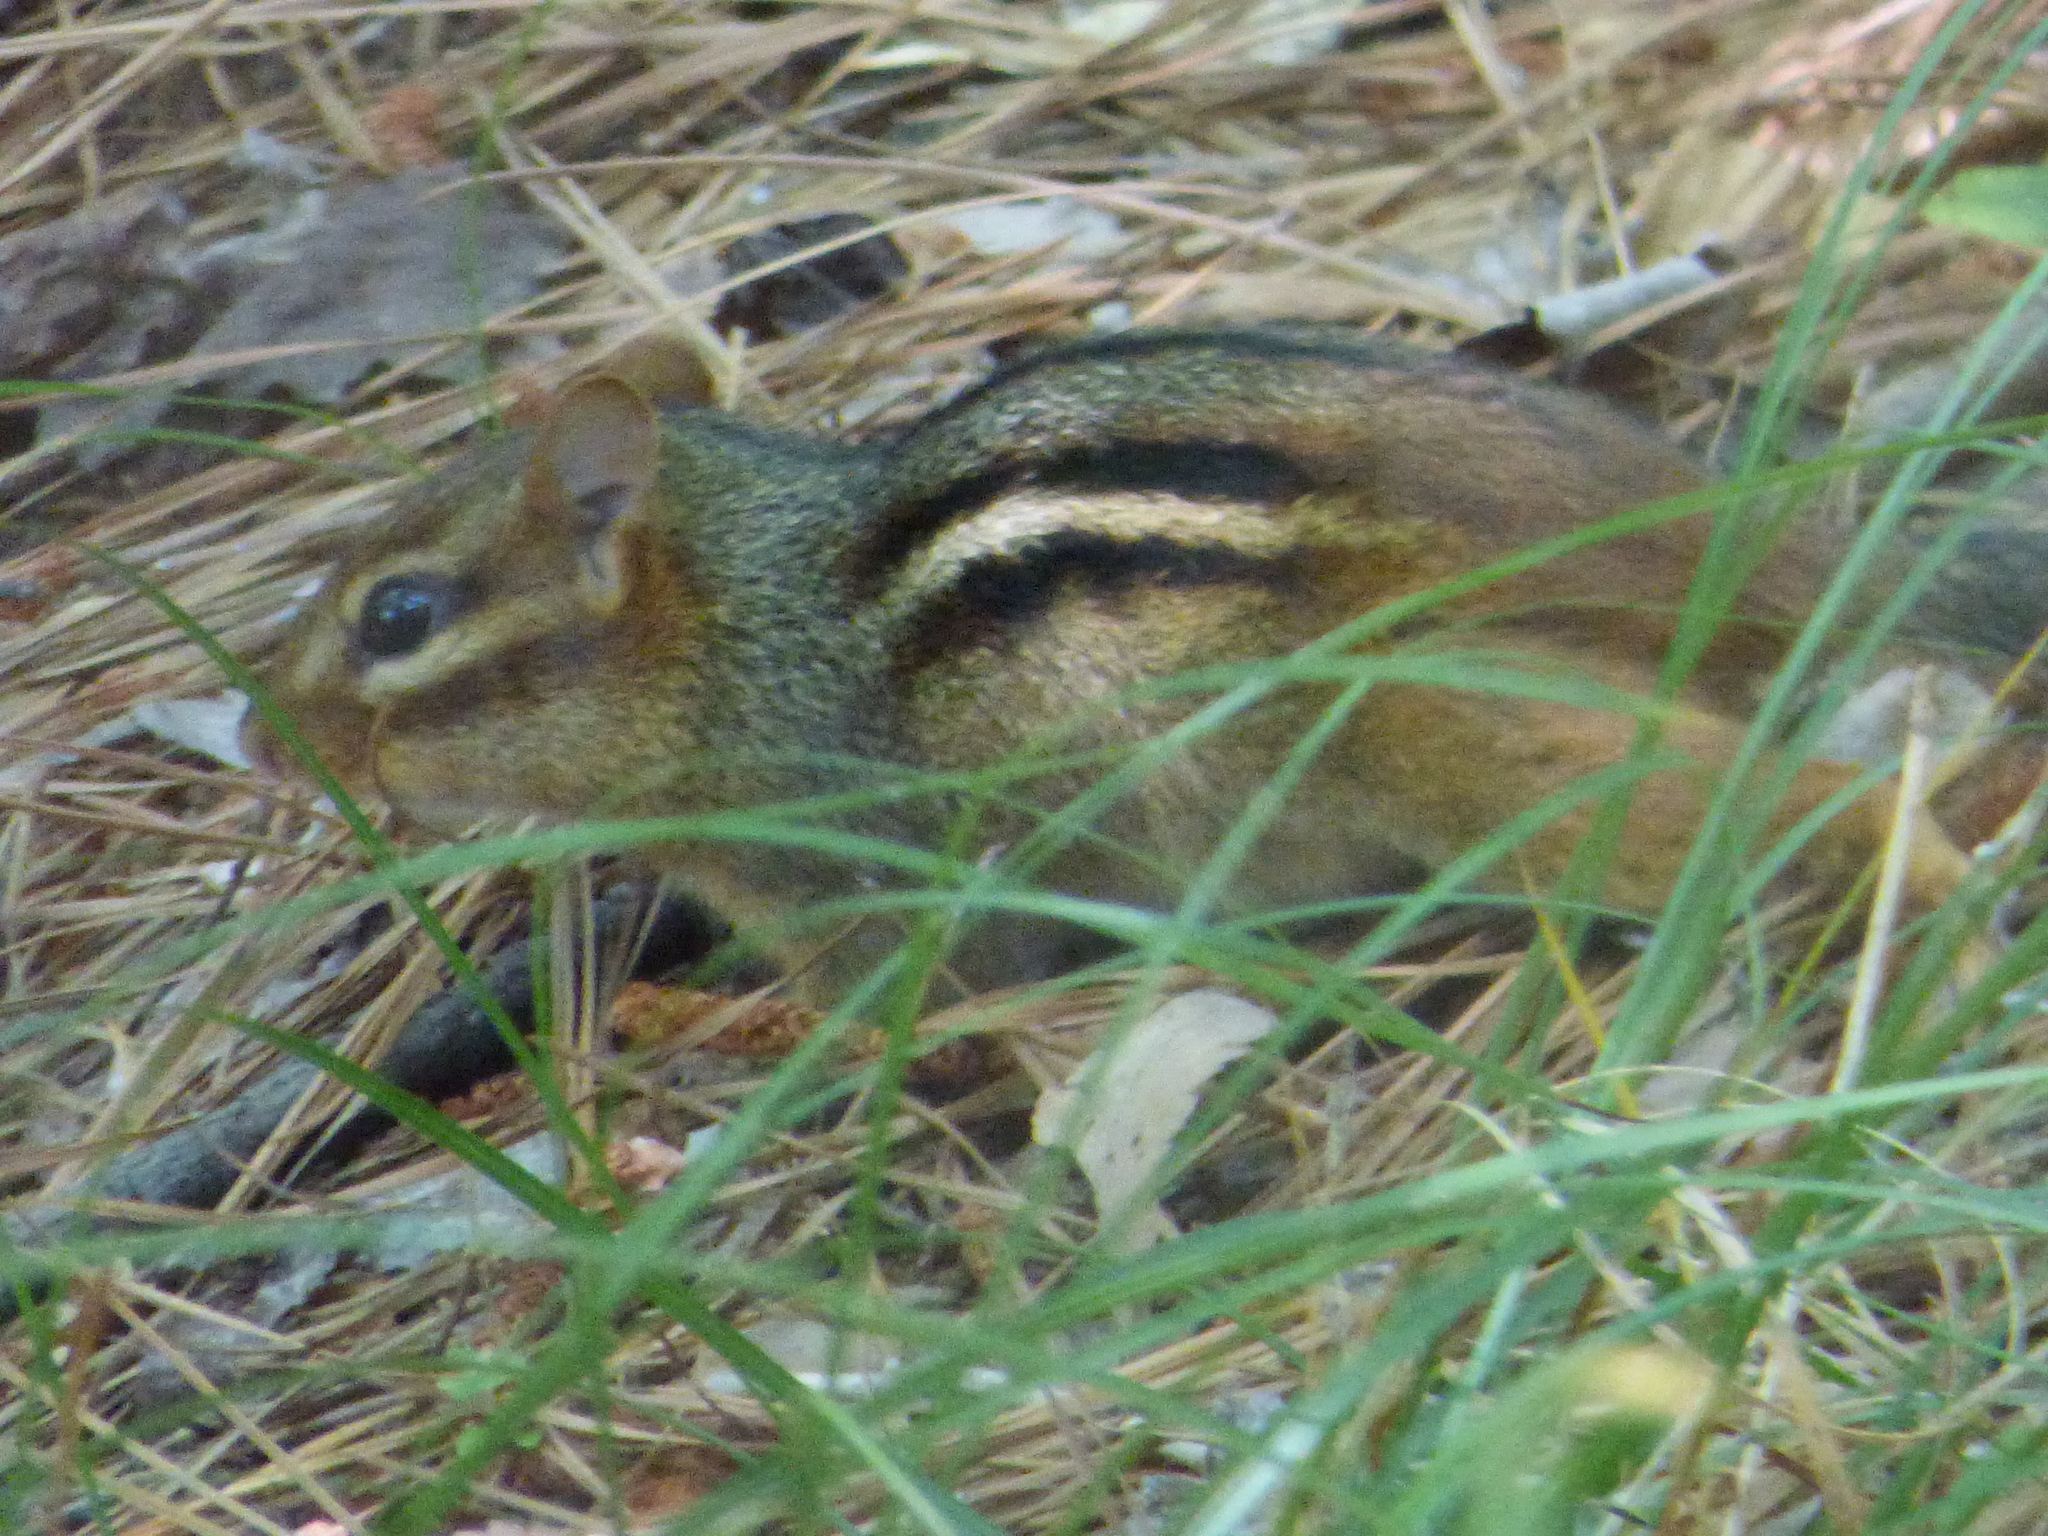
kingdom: Animalia
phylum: Chordata
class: Mammalia
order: Rodentia
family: Sciuridae
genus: Tamias
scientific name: Tamias striatus
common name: Eastern chipmunk
